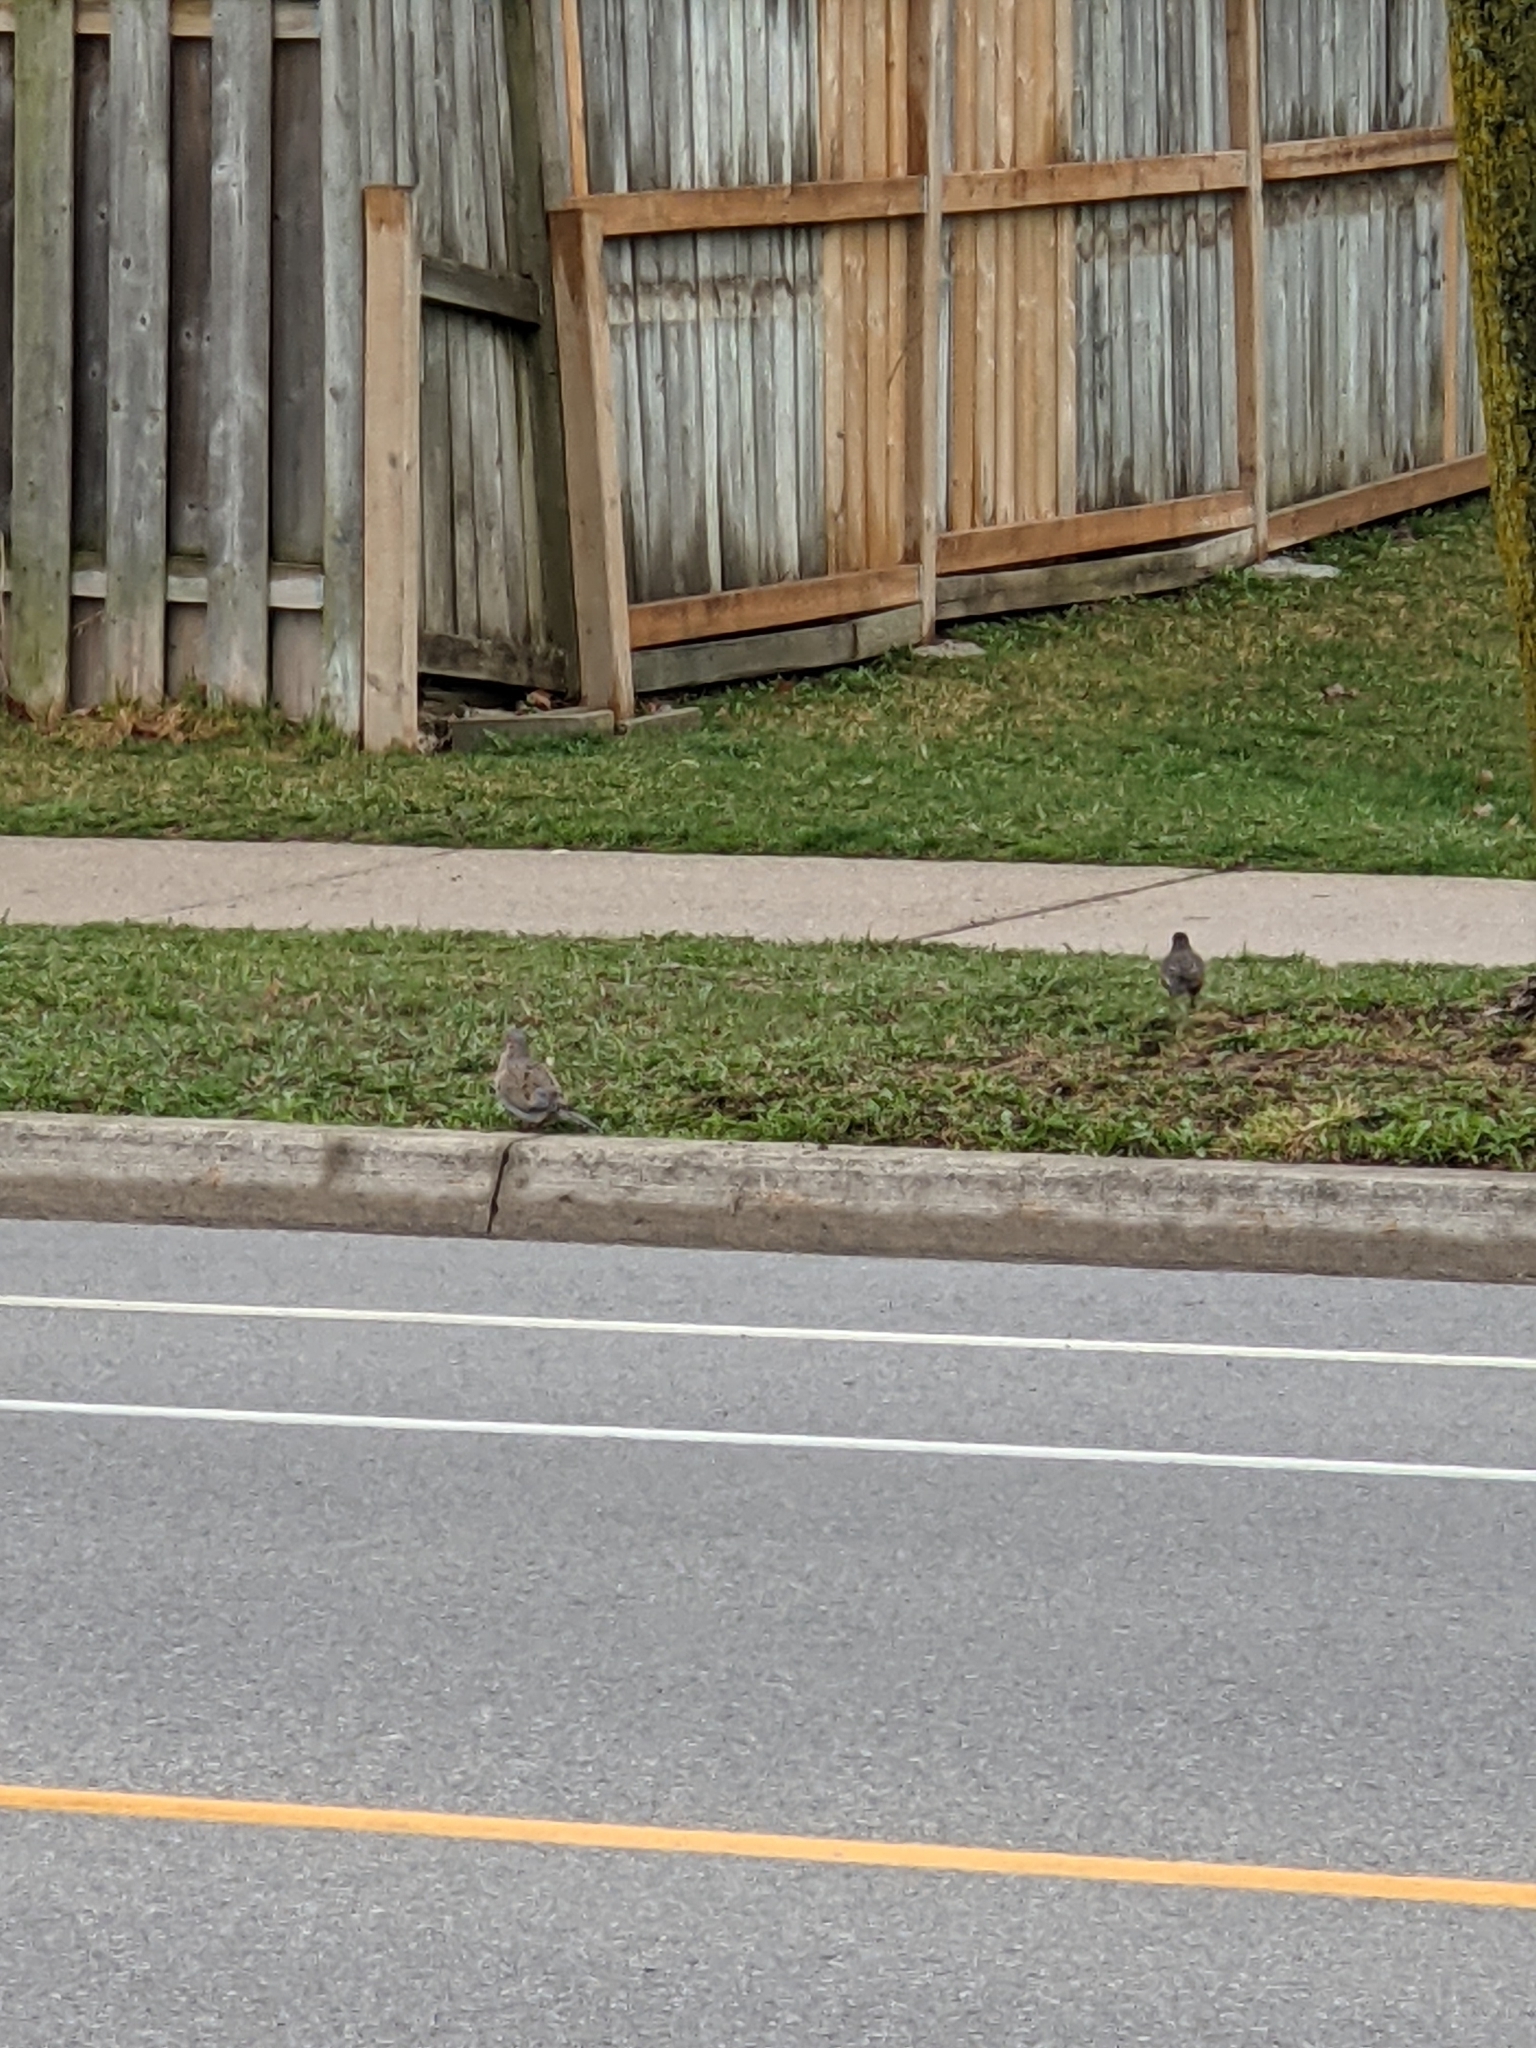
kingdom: Animalia
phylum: Chordata
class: Aves
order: Passeriformes
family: Turdidae
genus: Turdus
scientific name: Turdus migratorius
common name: American robin
